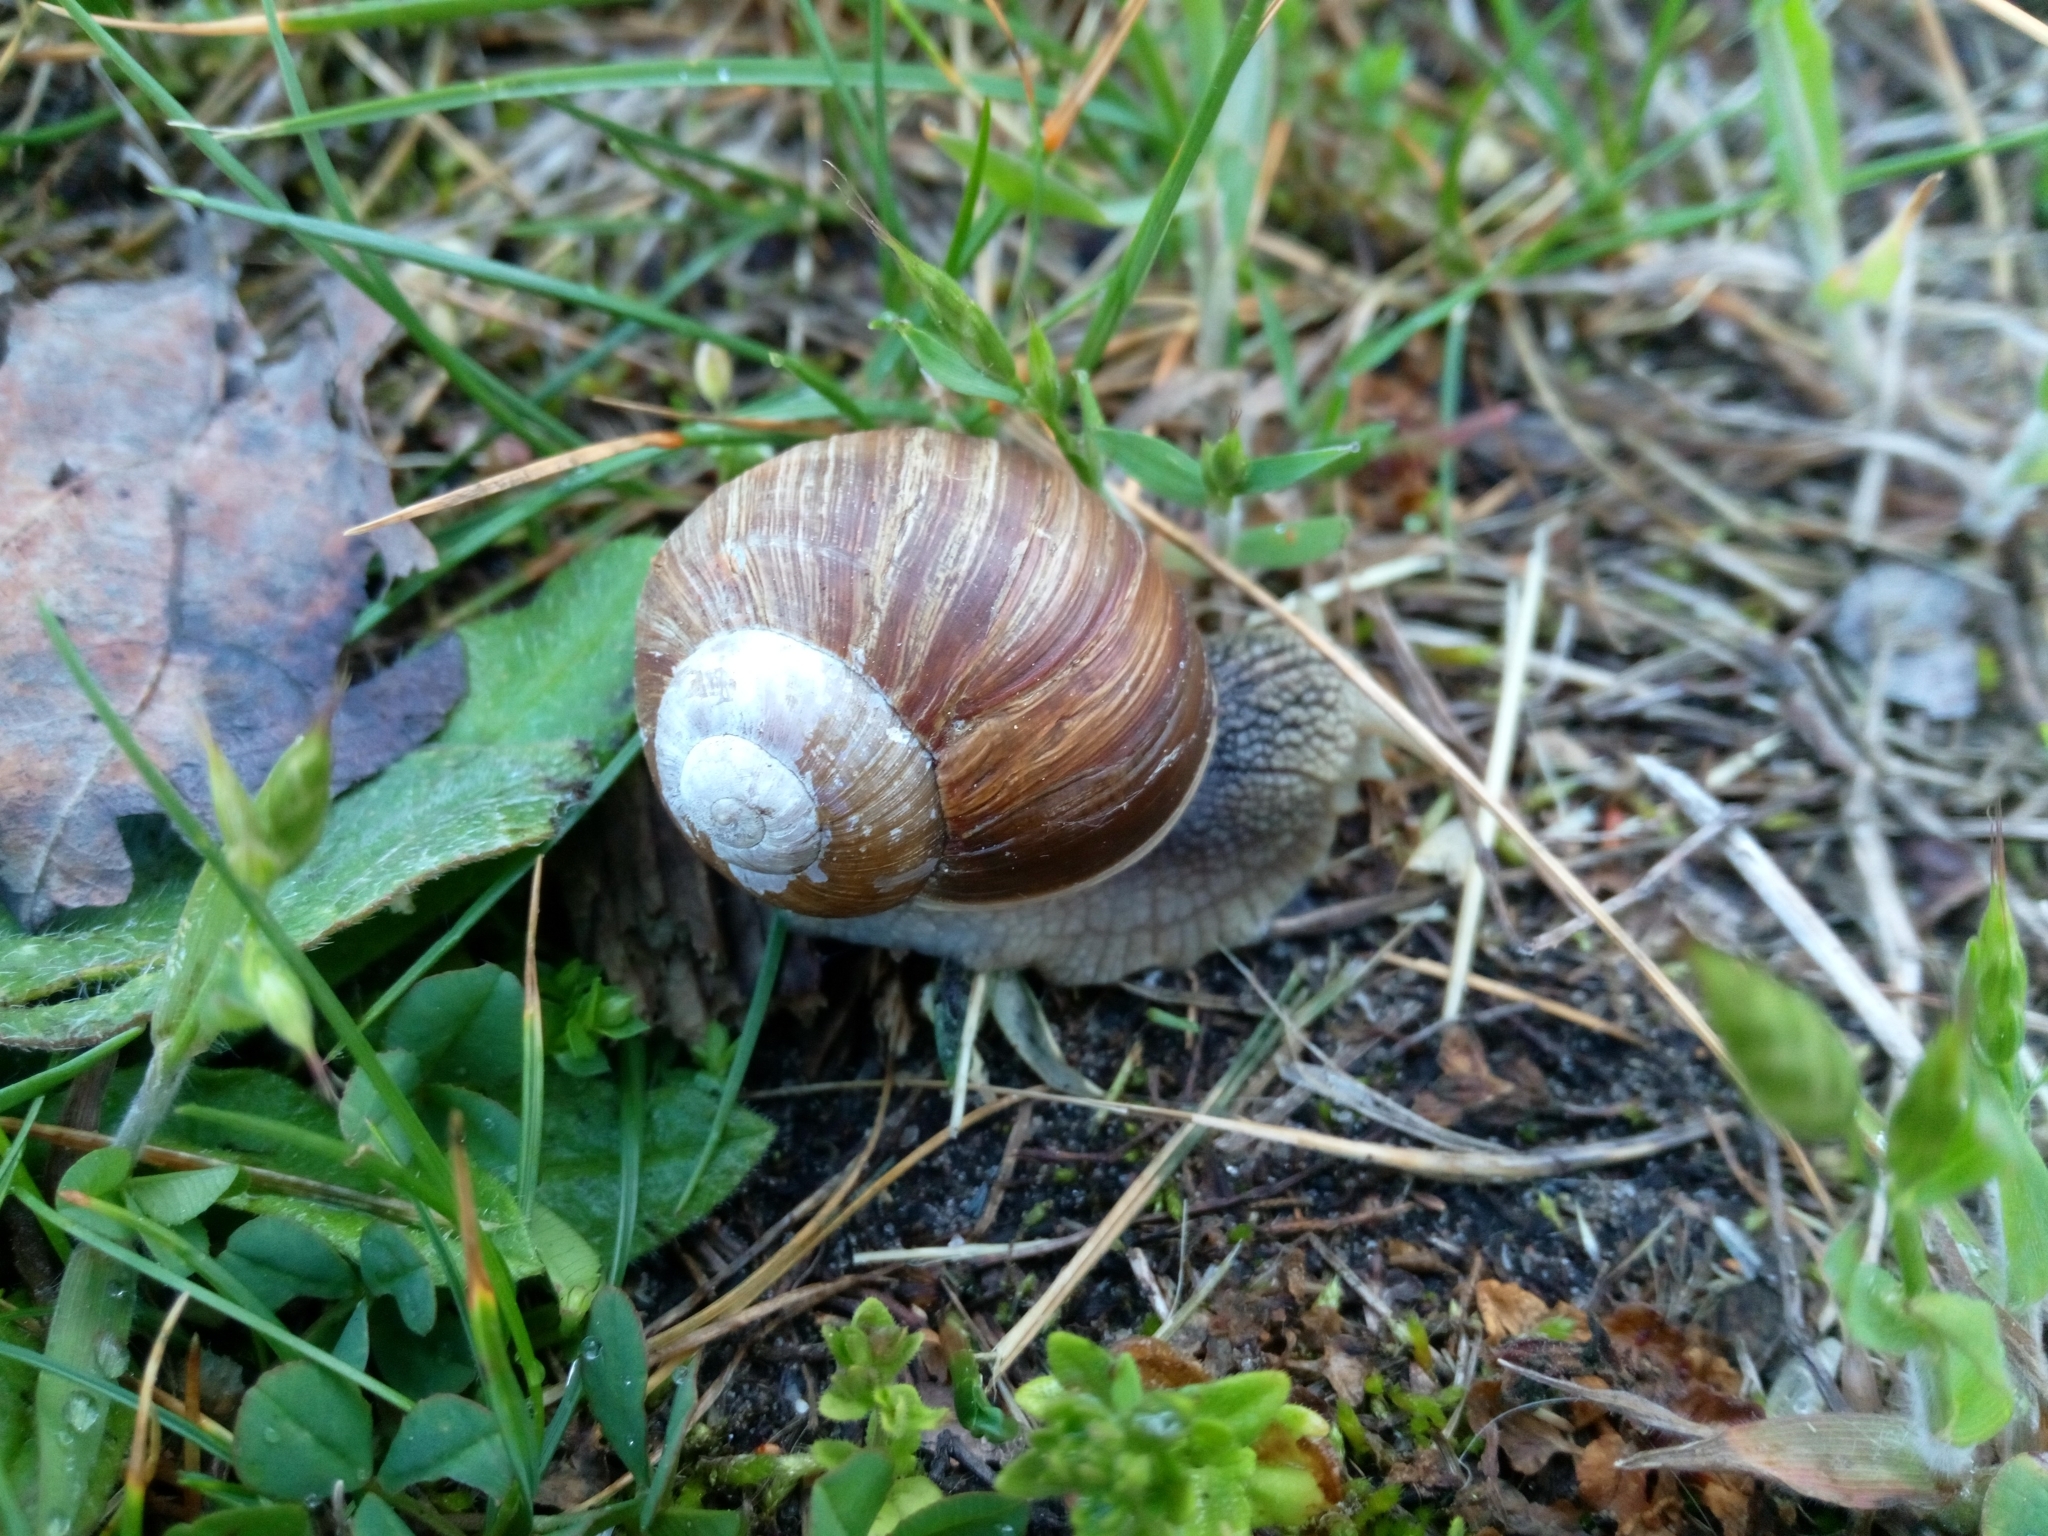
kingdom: Animalia
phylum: Mollusca
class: Gastropoda
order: Stylommatophora
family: Helicidae
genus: Helix
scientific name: Helix pomatia
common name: Roman snail
